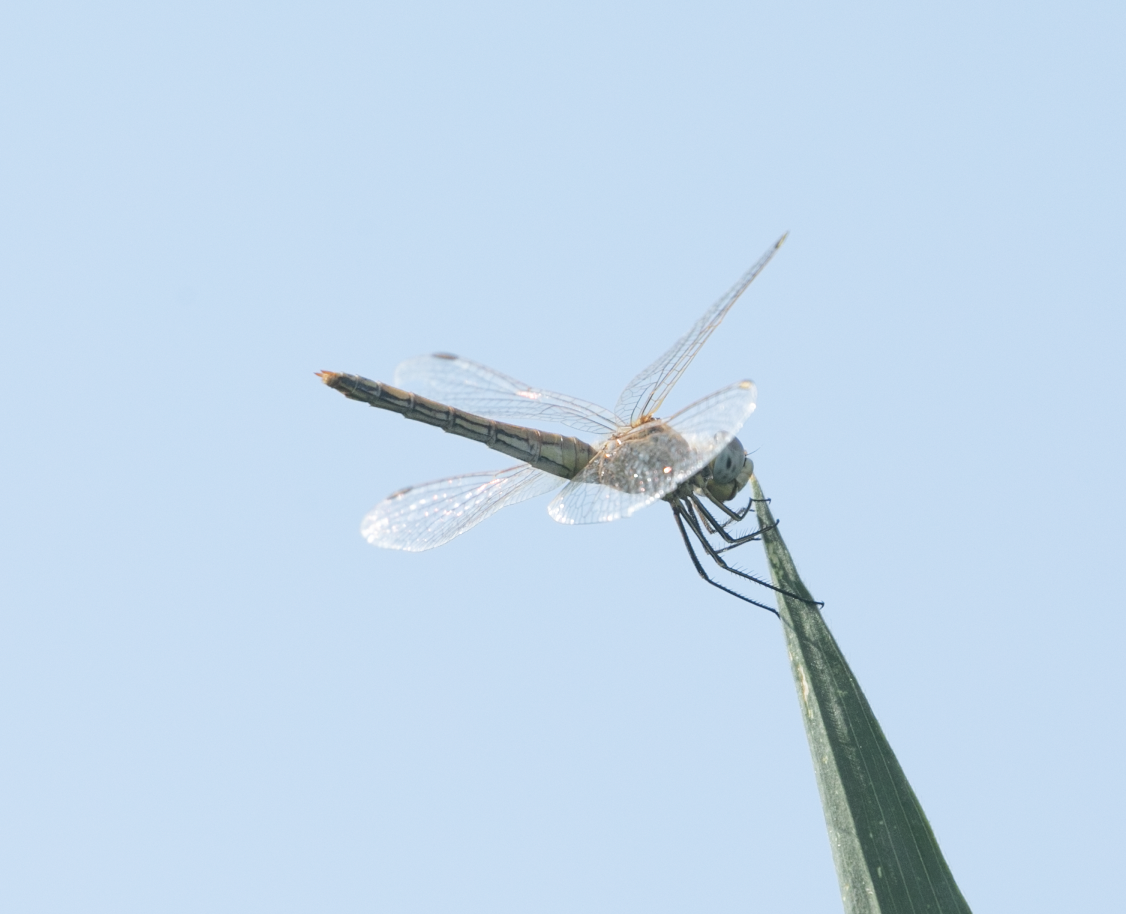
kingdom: Animalia
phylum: Arthropoda
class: Insecta
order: Odonata
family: Libellulidae
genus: Sympetrum
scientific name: Sympetrum fonscolombii
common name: Red-veined darter
